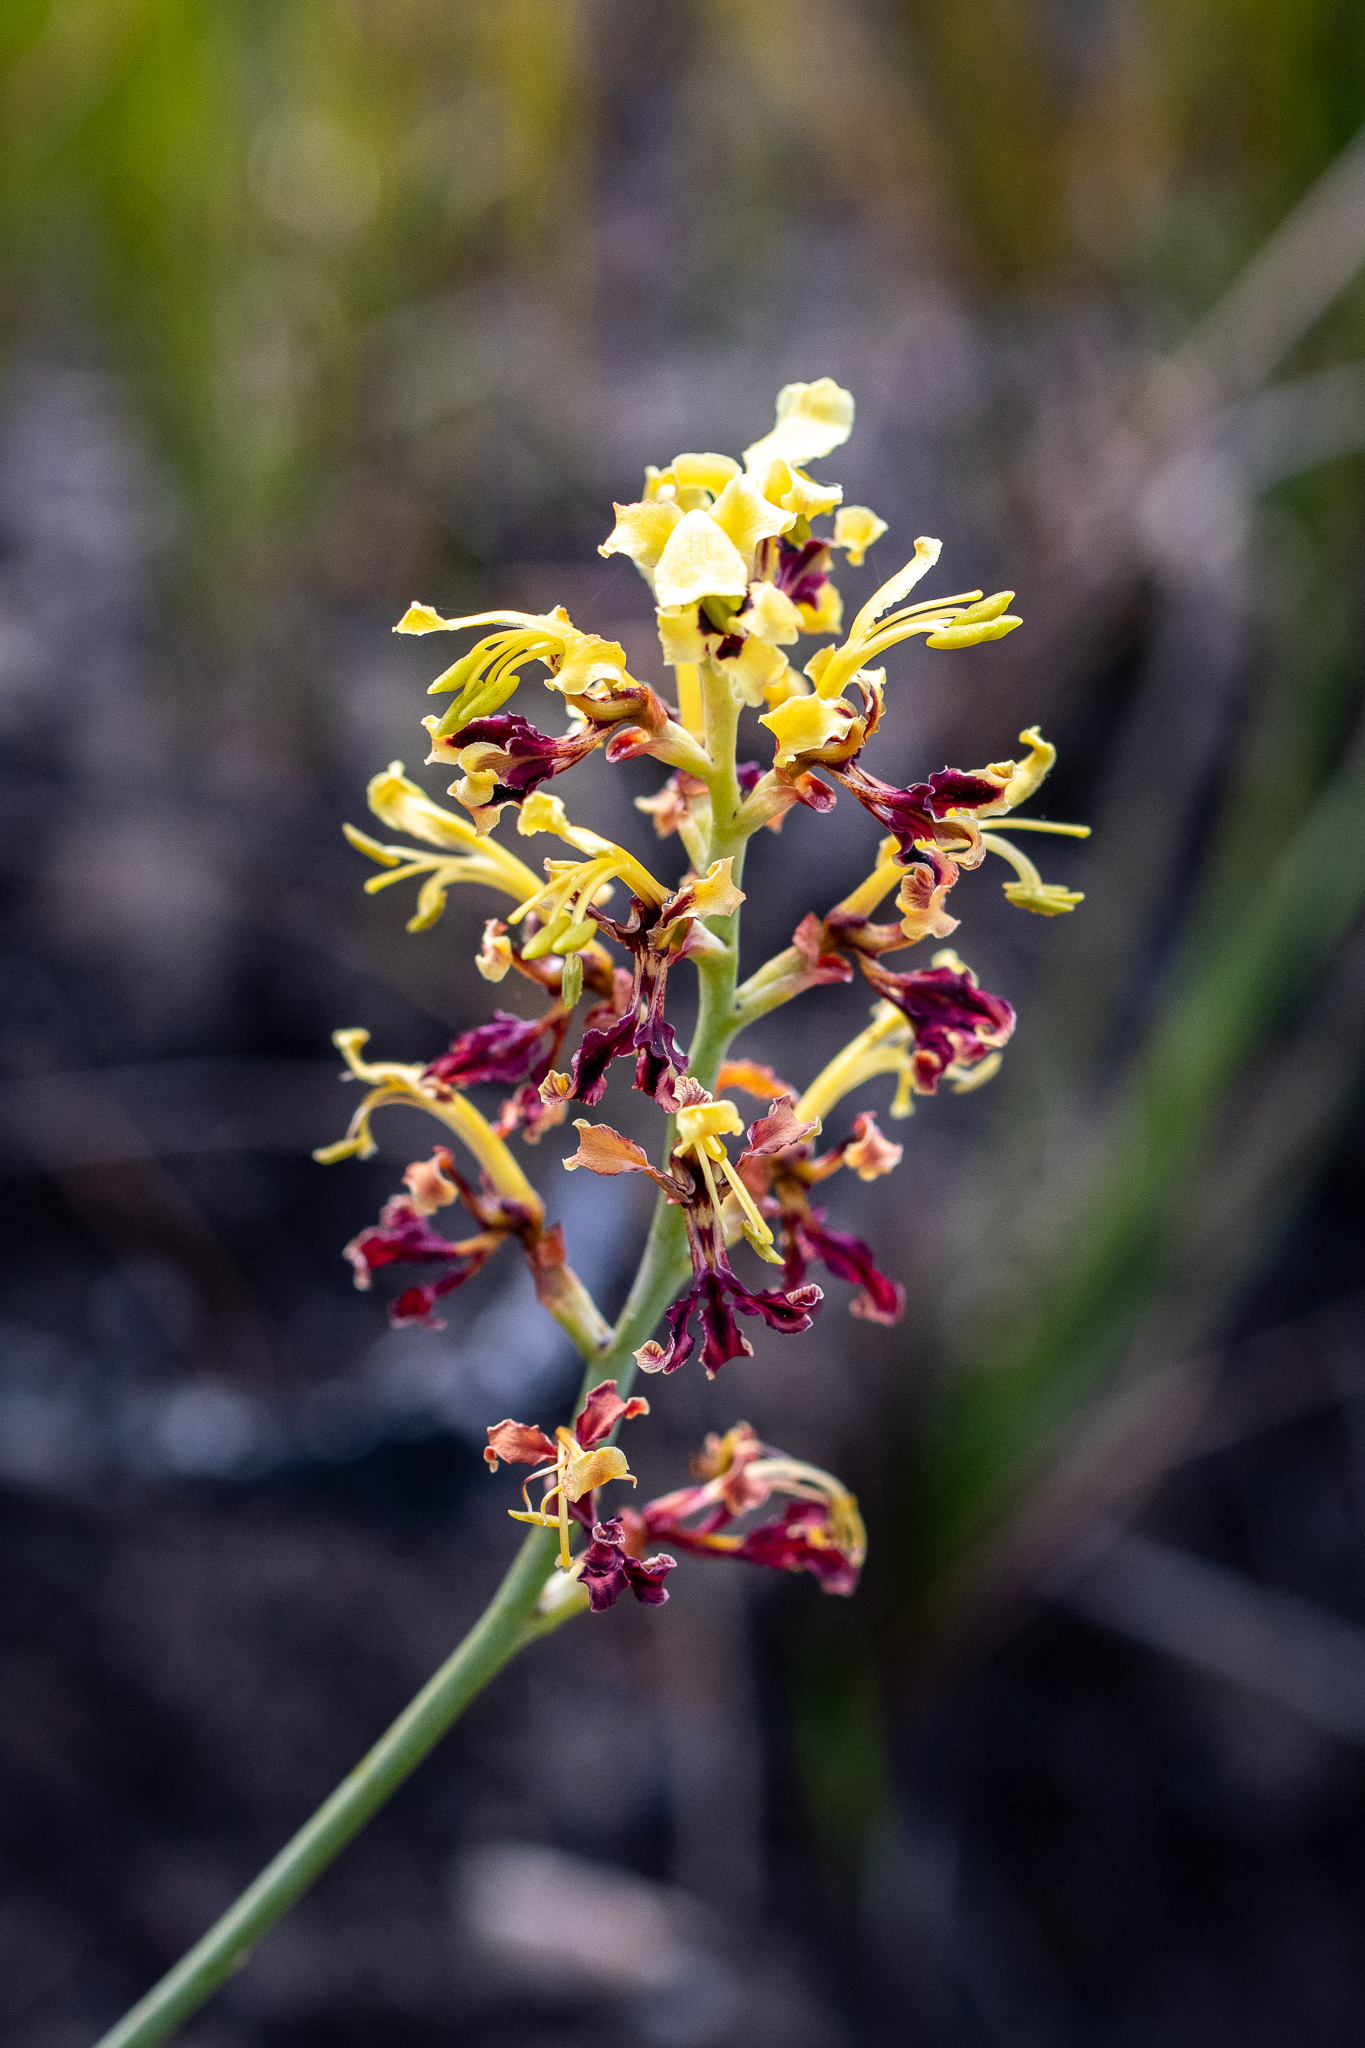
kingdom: Plantae
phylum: Tracheophyta
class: Liliopsida
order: Asparagales
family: Iridaceae
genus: Tritoniopsis
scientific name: Tritoniopsis parviflora
